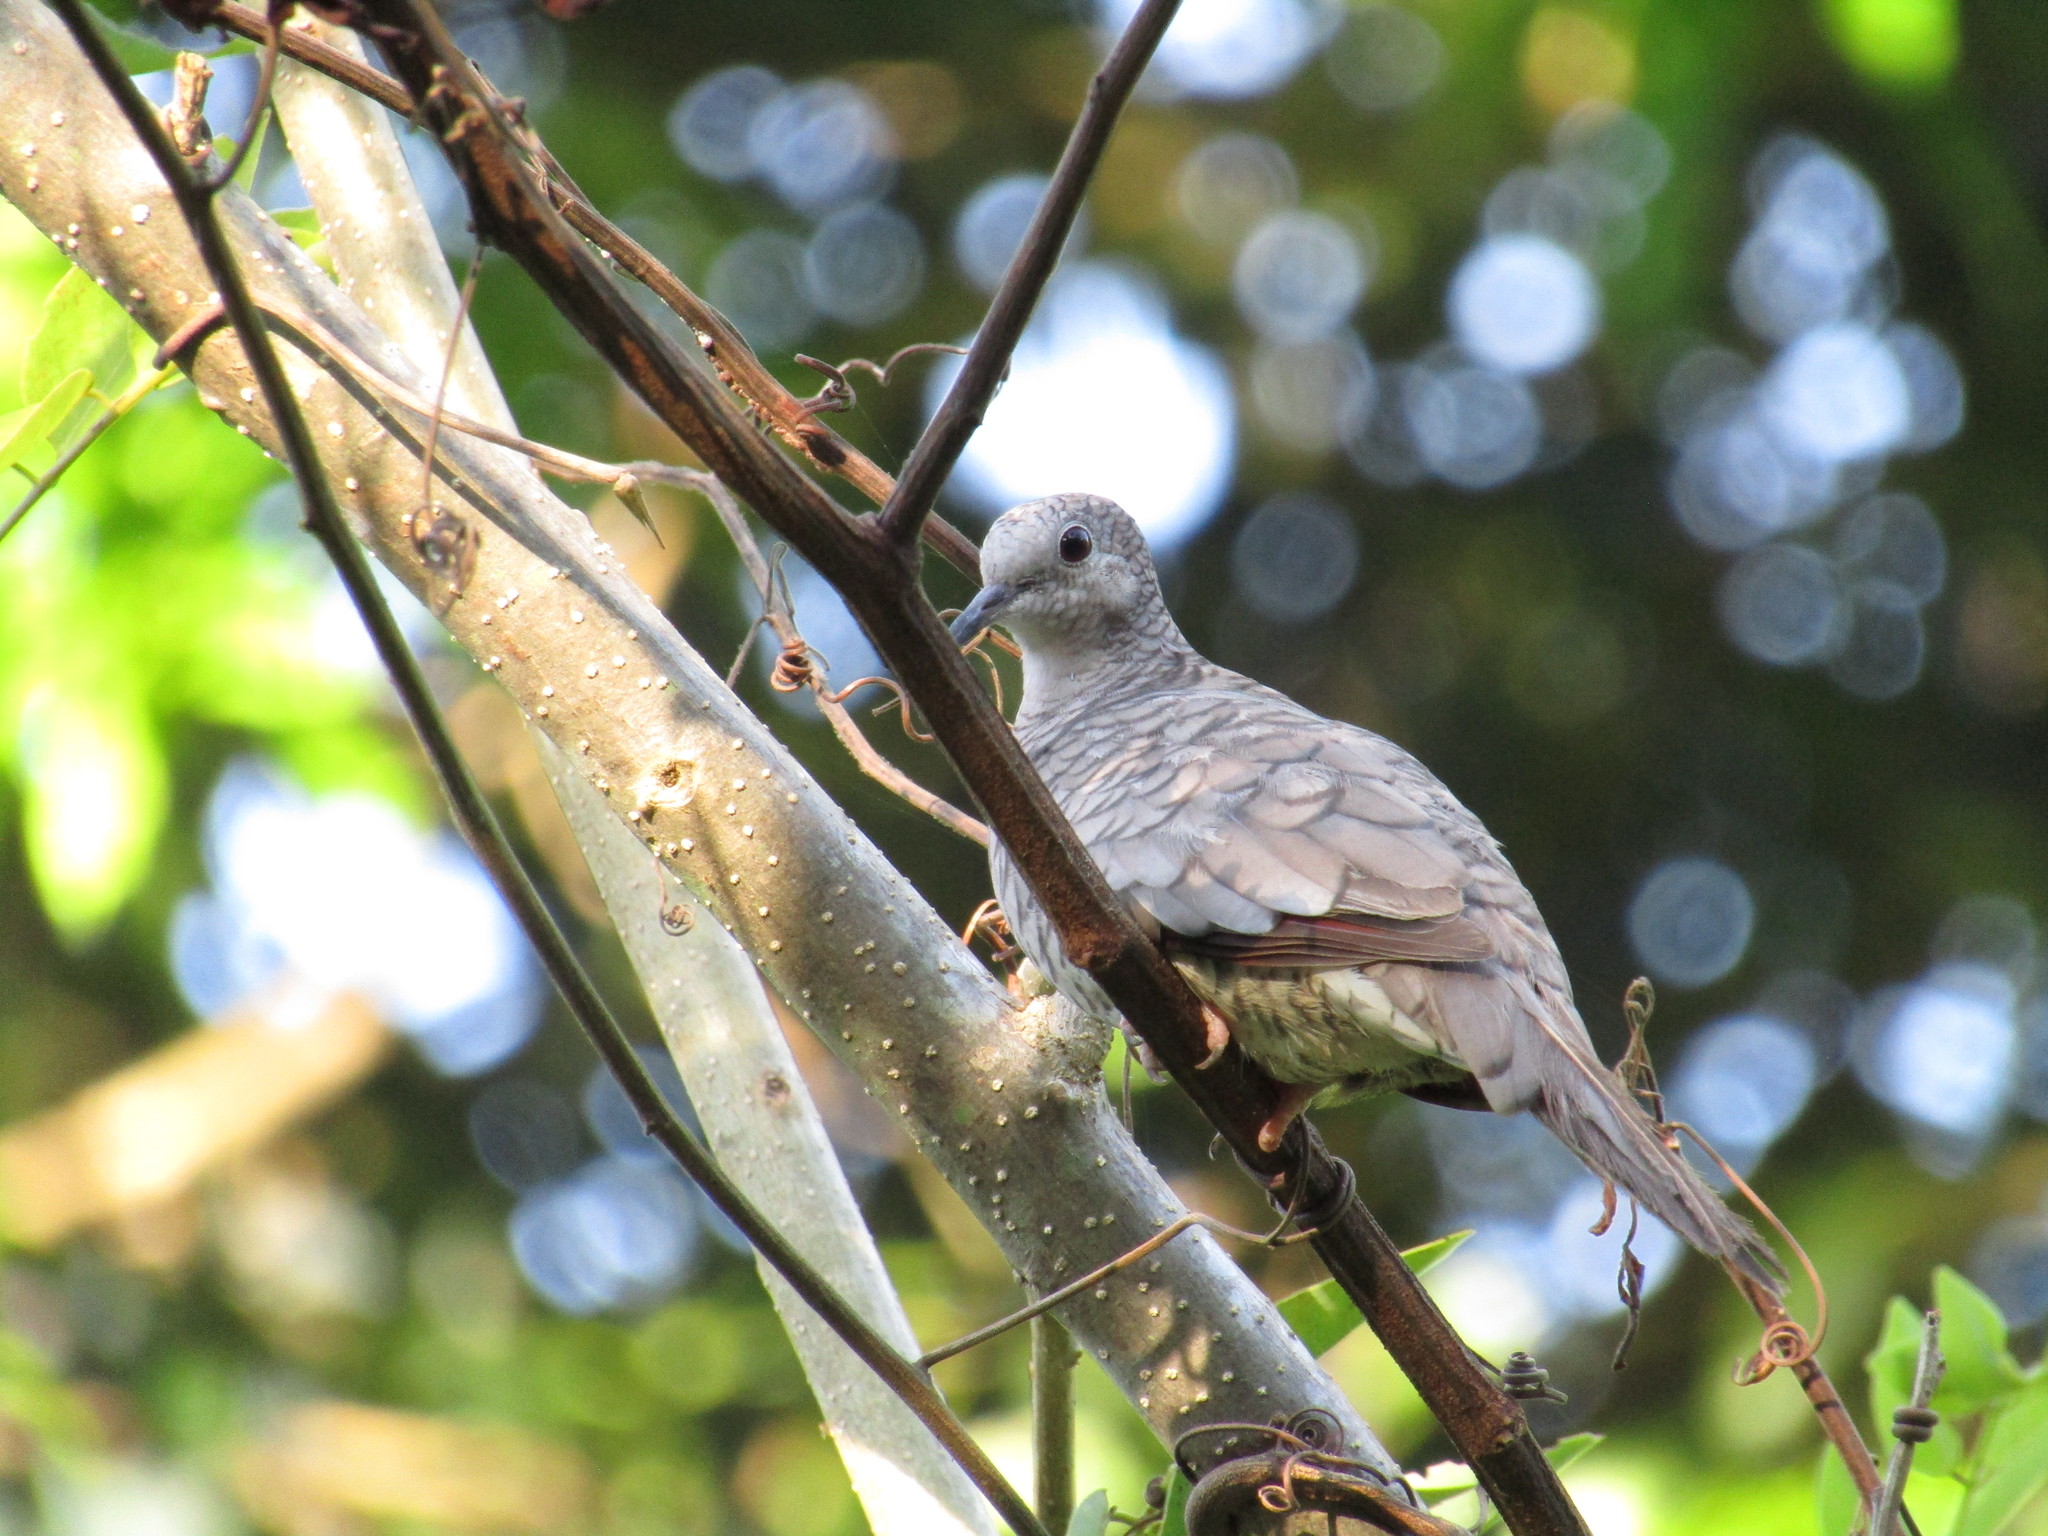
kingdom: Animalia
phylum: Chordata
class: Aves
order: Columbiformes
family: Columbidae
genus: Columbina
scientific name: Columbina inca
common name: Inca dove
